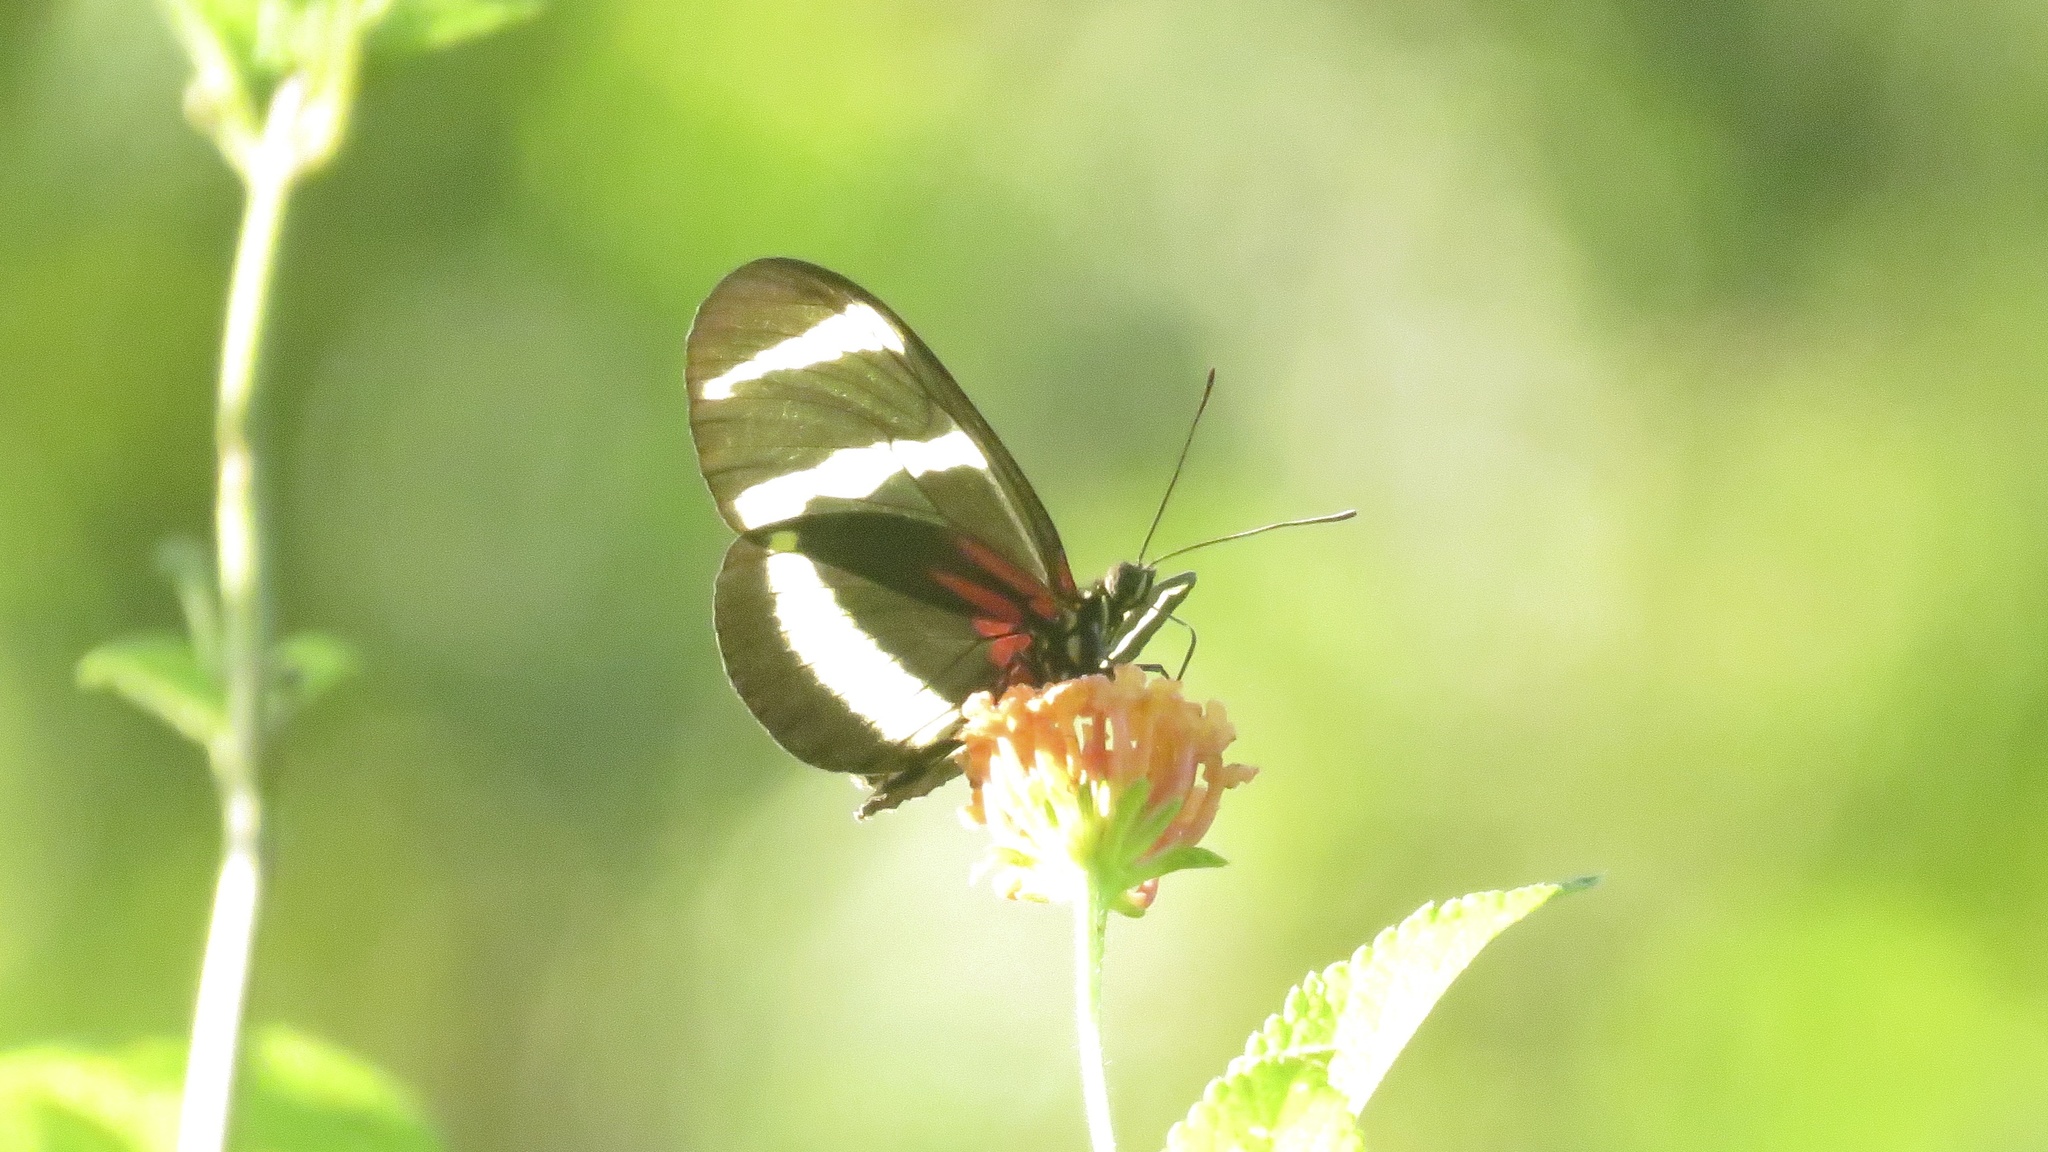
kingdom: Animalia
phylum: Arthropoda
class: Insecta
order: Lepidoptera
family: Nymphalidae
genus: Heliconius
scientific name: Heliconius hewitsoni
